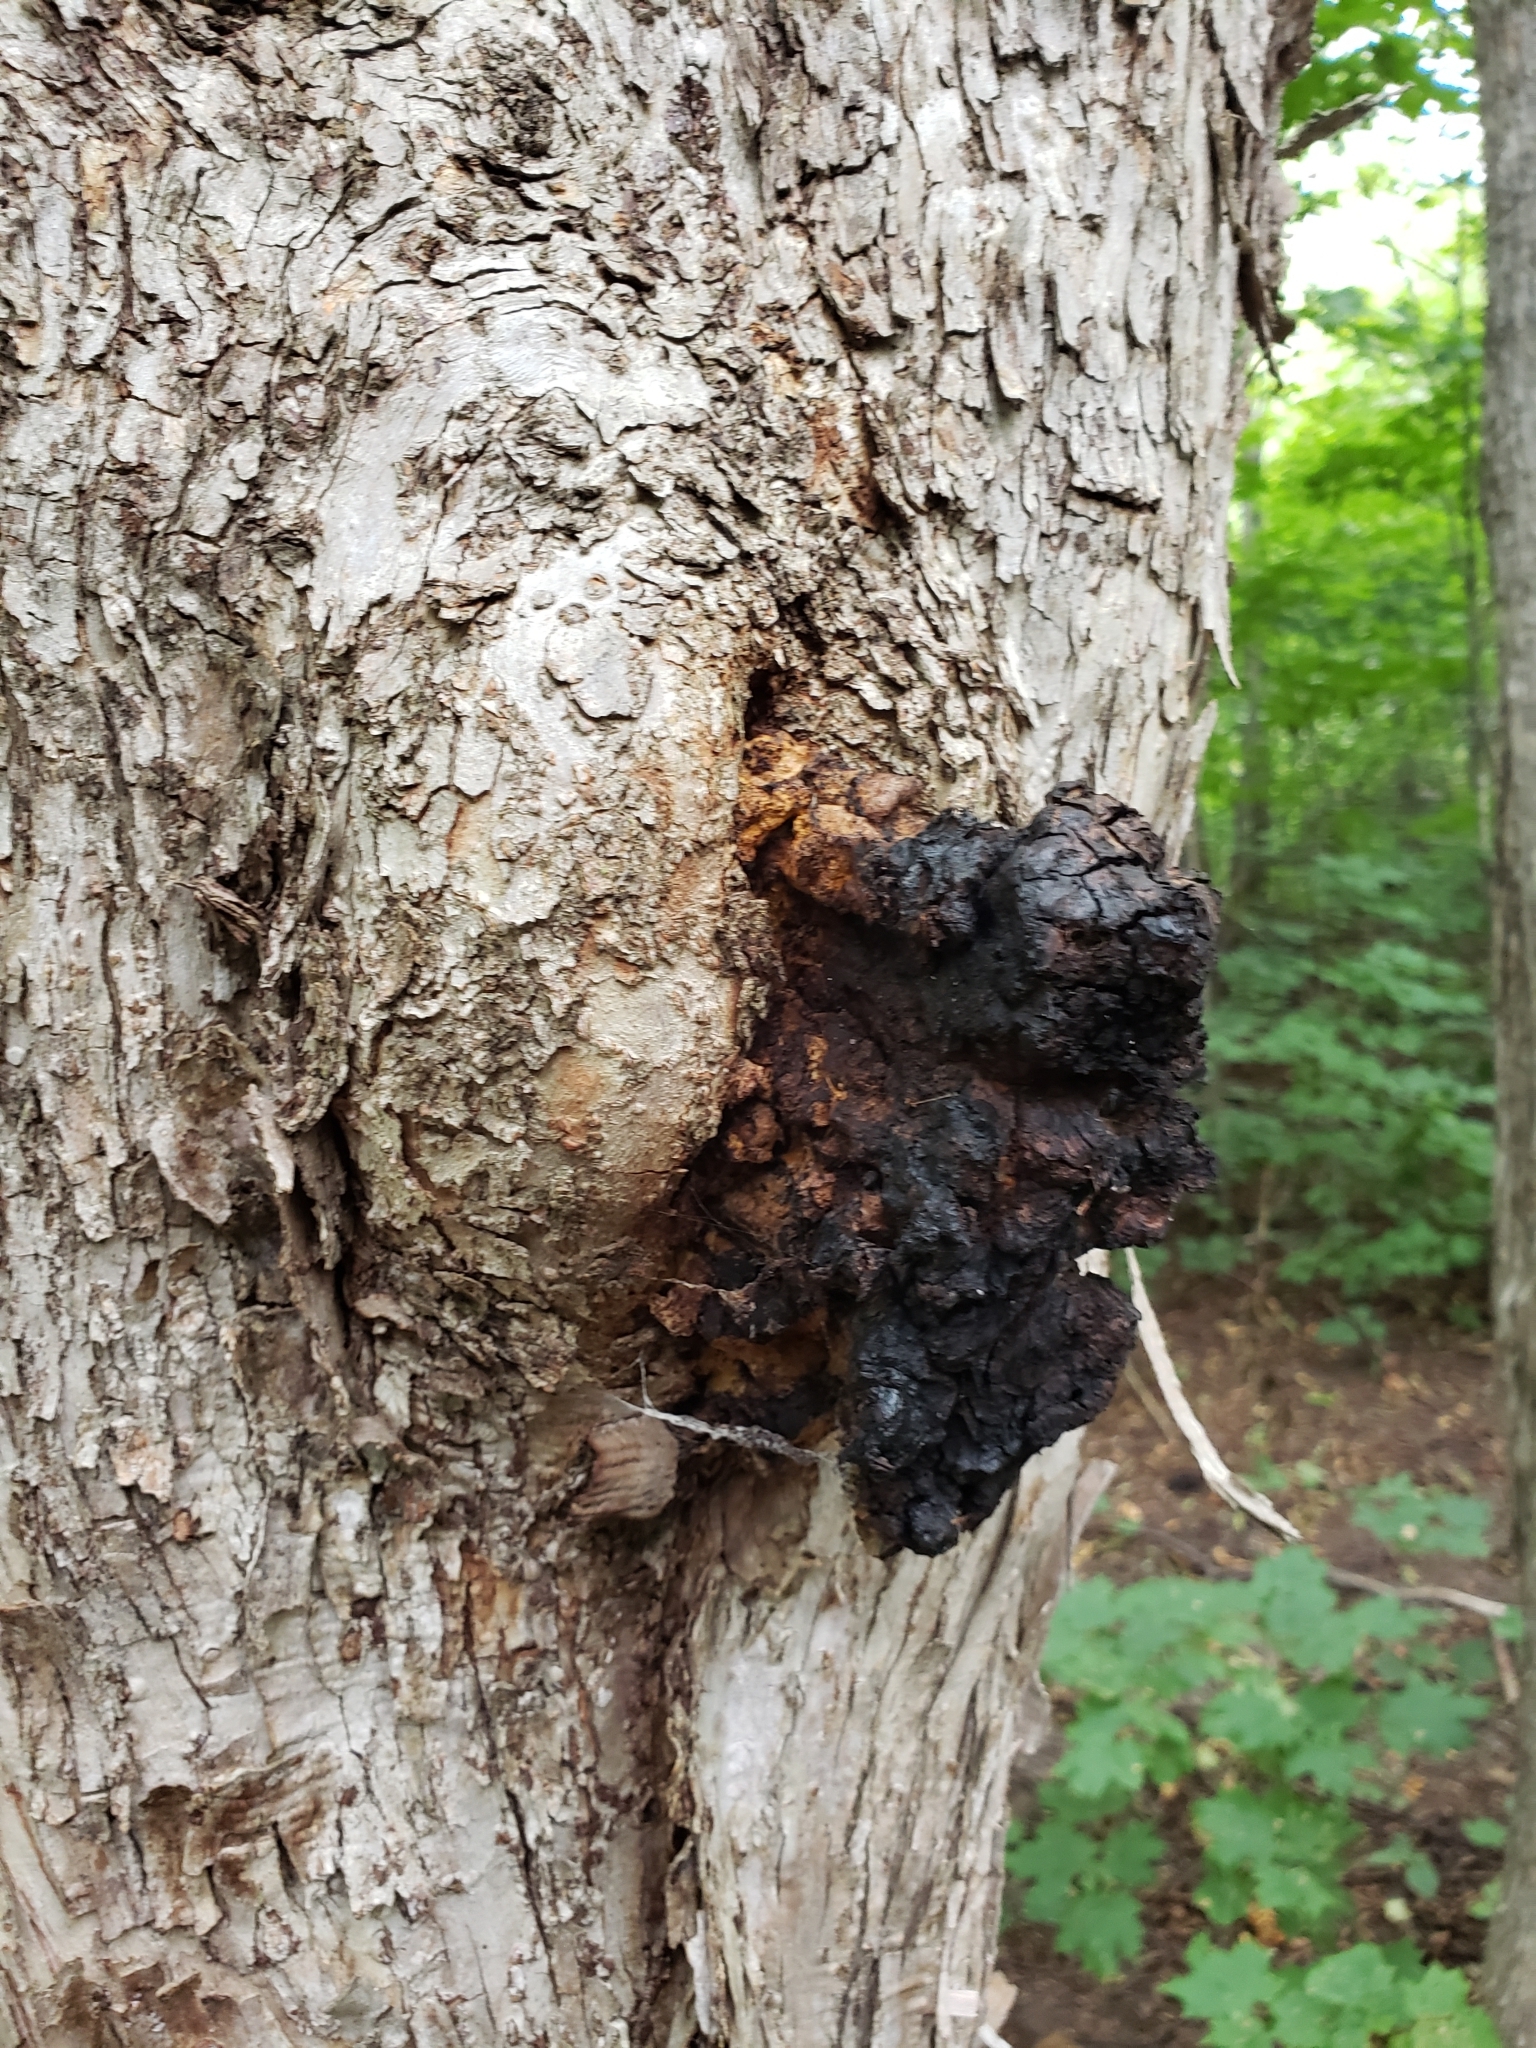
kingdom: Fungi
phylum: Basidiomycota
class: Agaricomycetes
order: Hymenochaetales
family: Hymenochaetaceae
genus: Inonotus
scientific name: Inonotus obliquus
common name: Chaga
